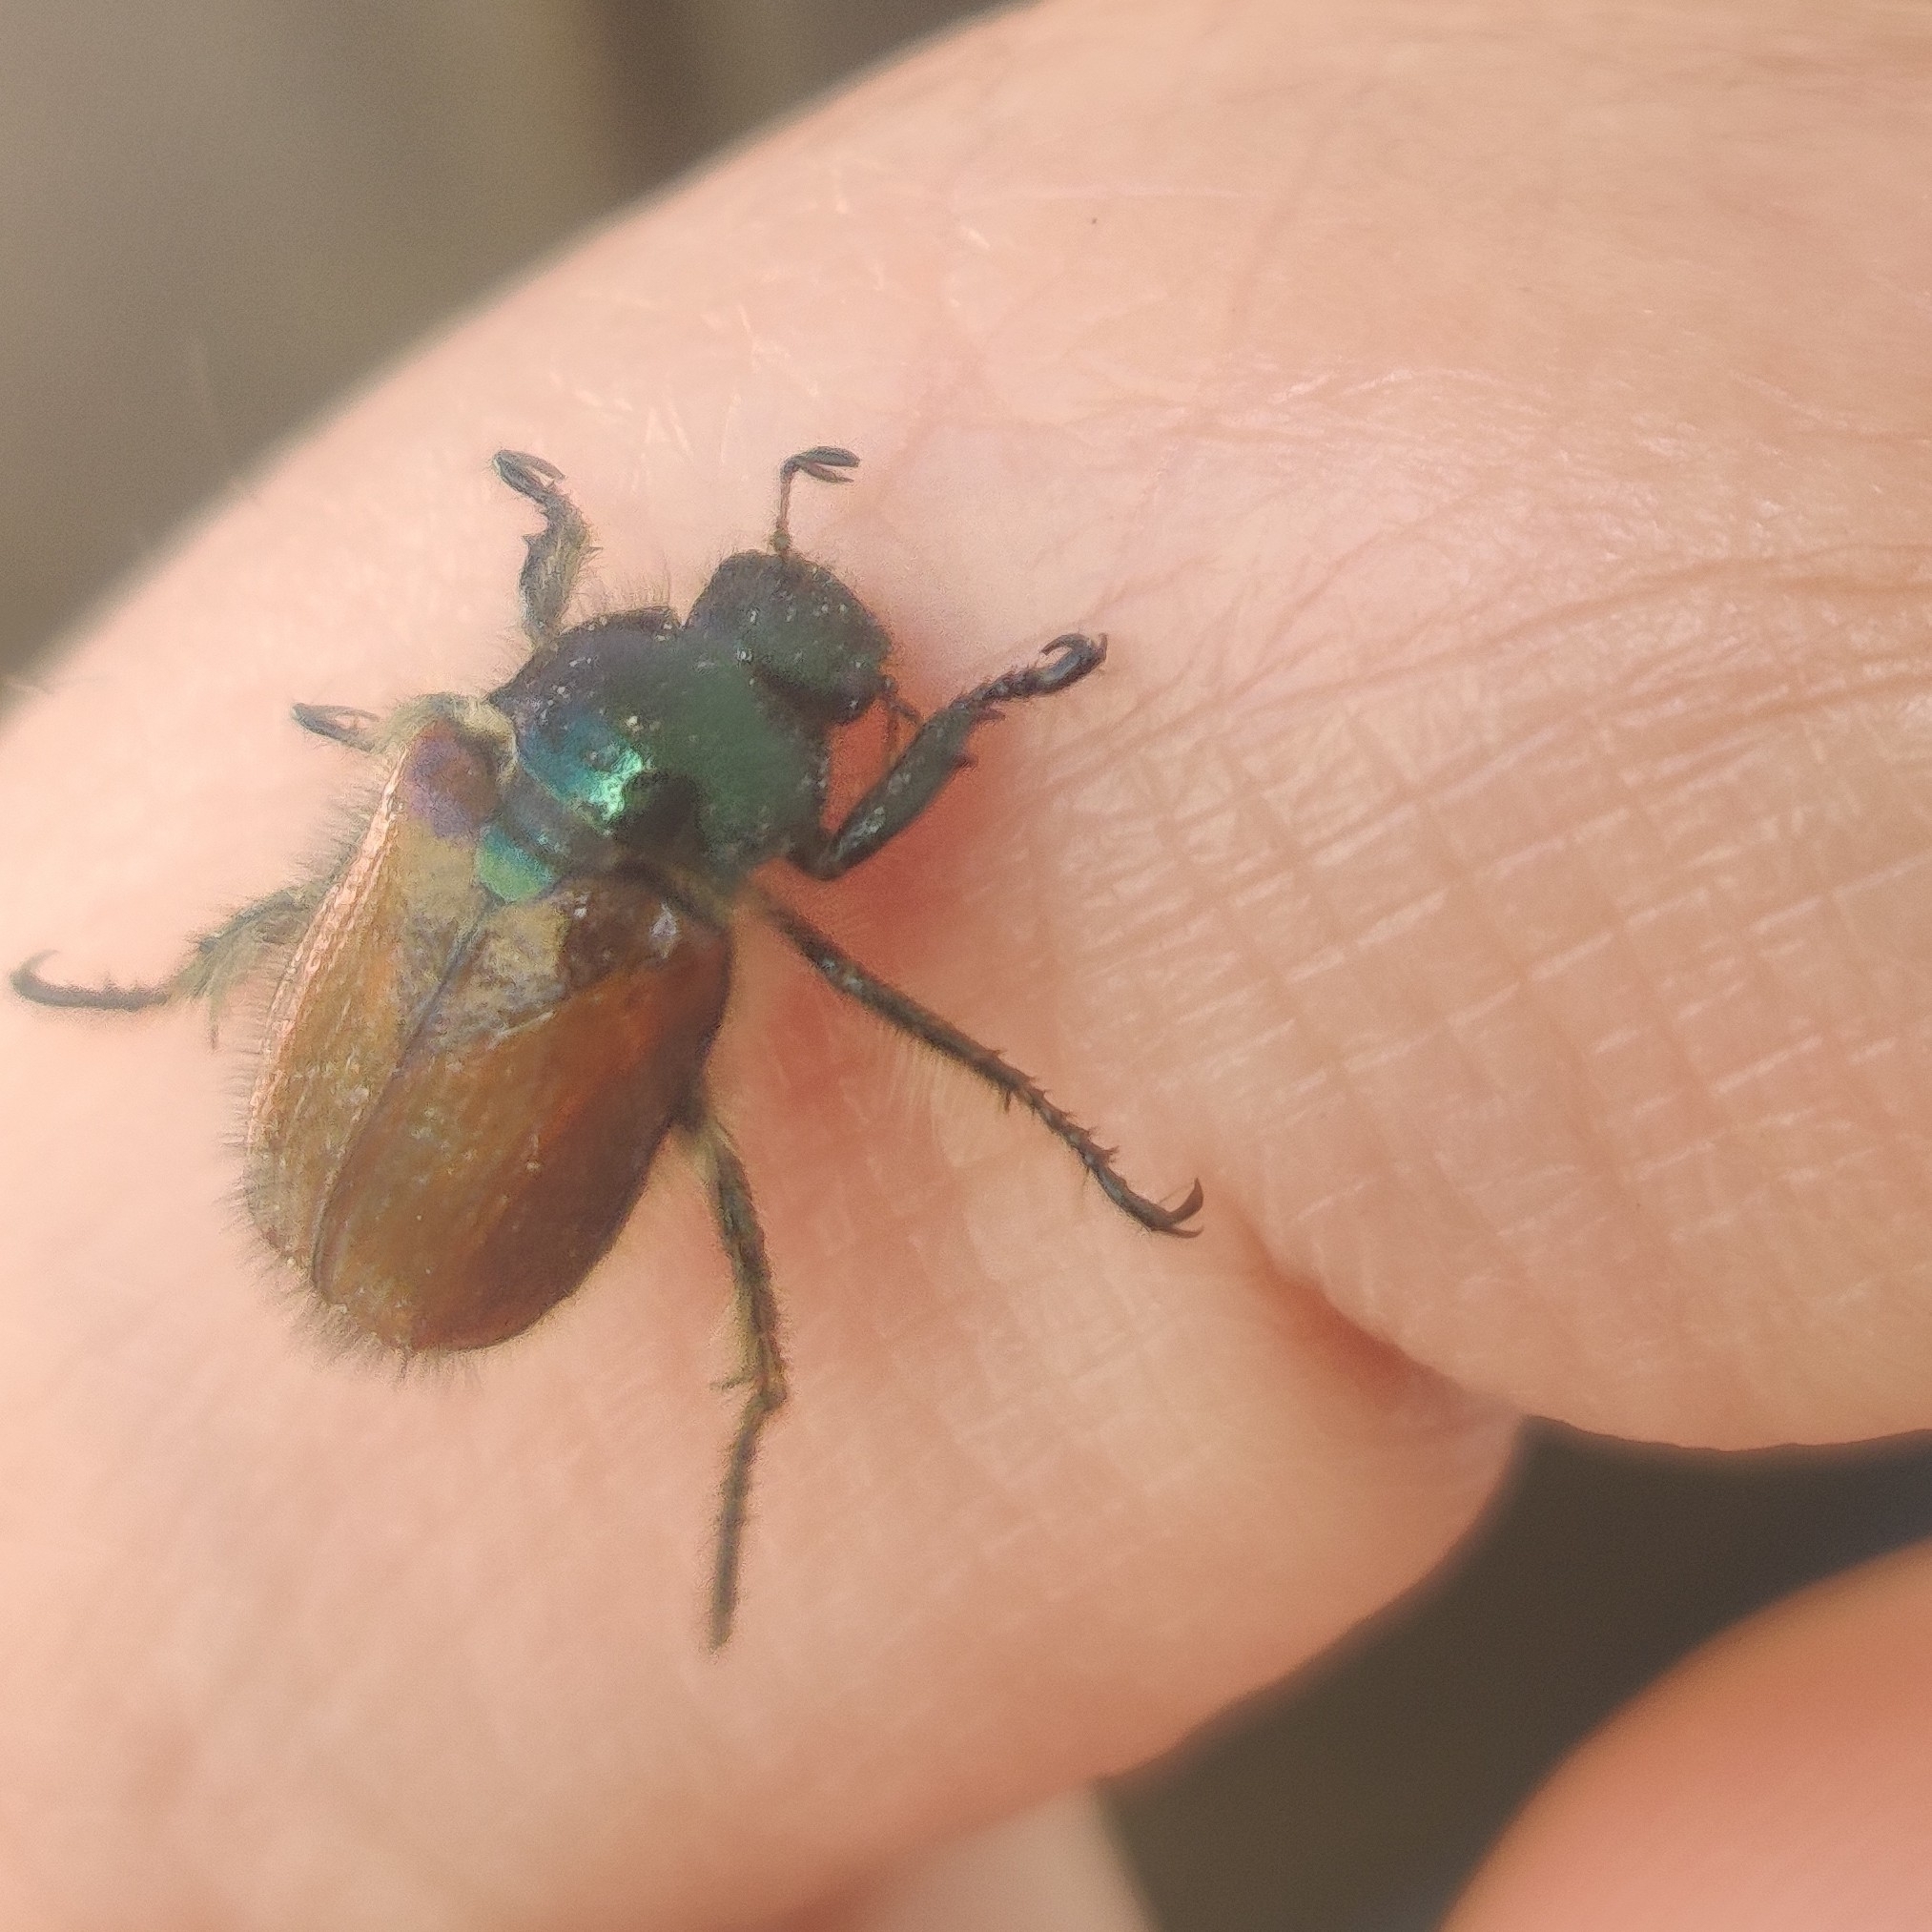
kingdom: Animalia
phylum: Arthropoda
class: Insecta
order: Coleoptera
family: Scarabaeidae
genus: Phyllopertha
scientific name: Phyllopertha horticola
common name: Garden chafer
